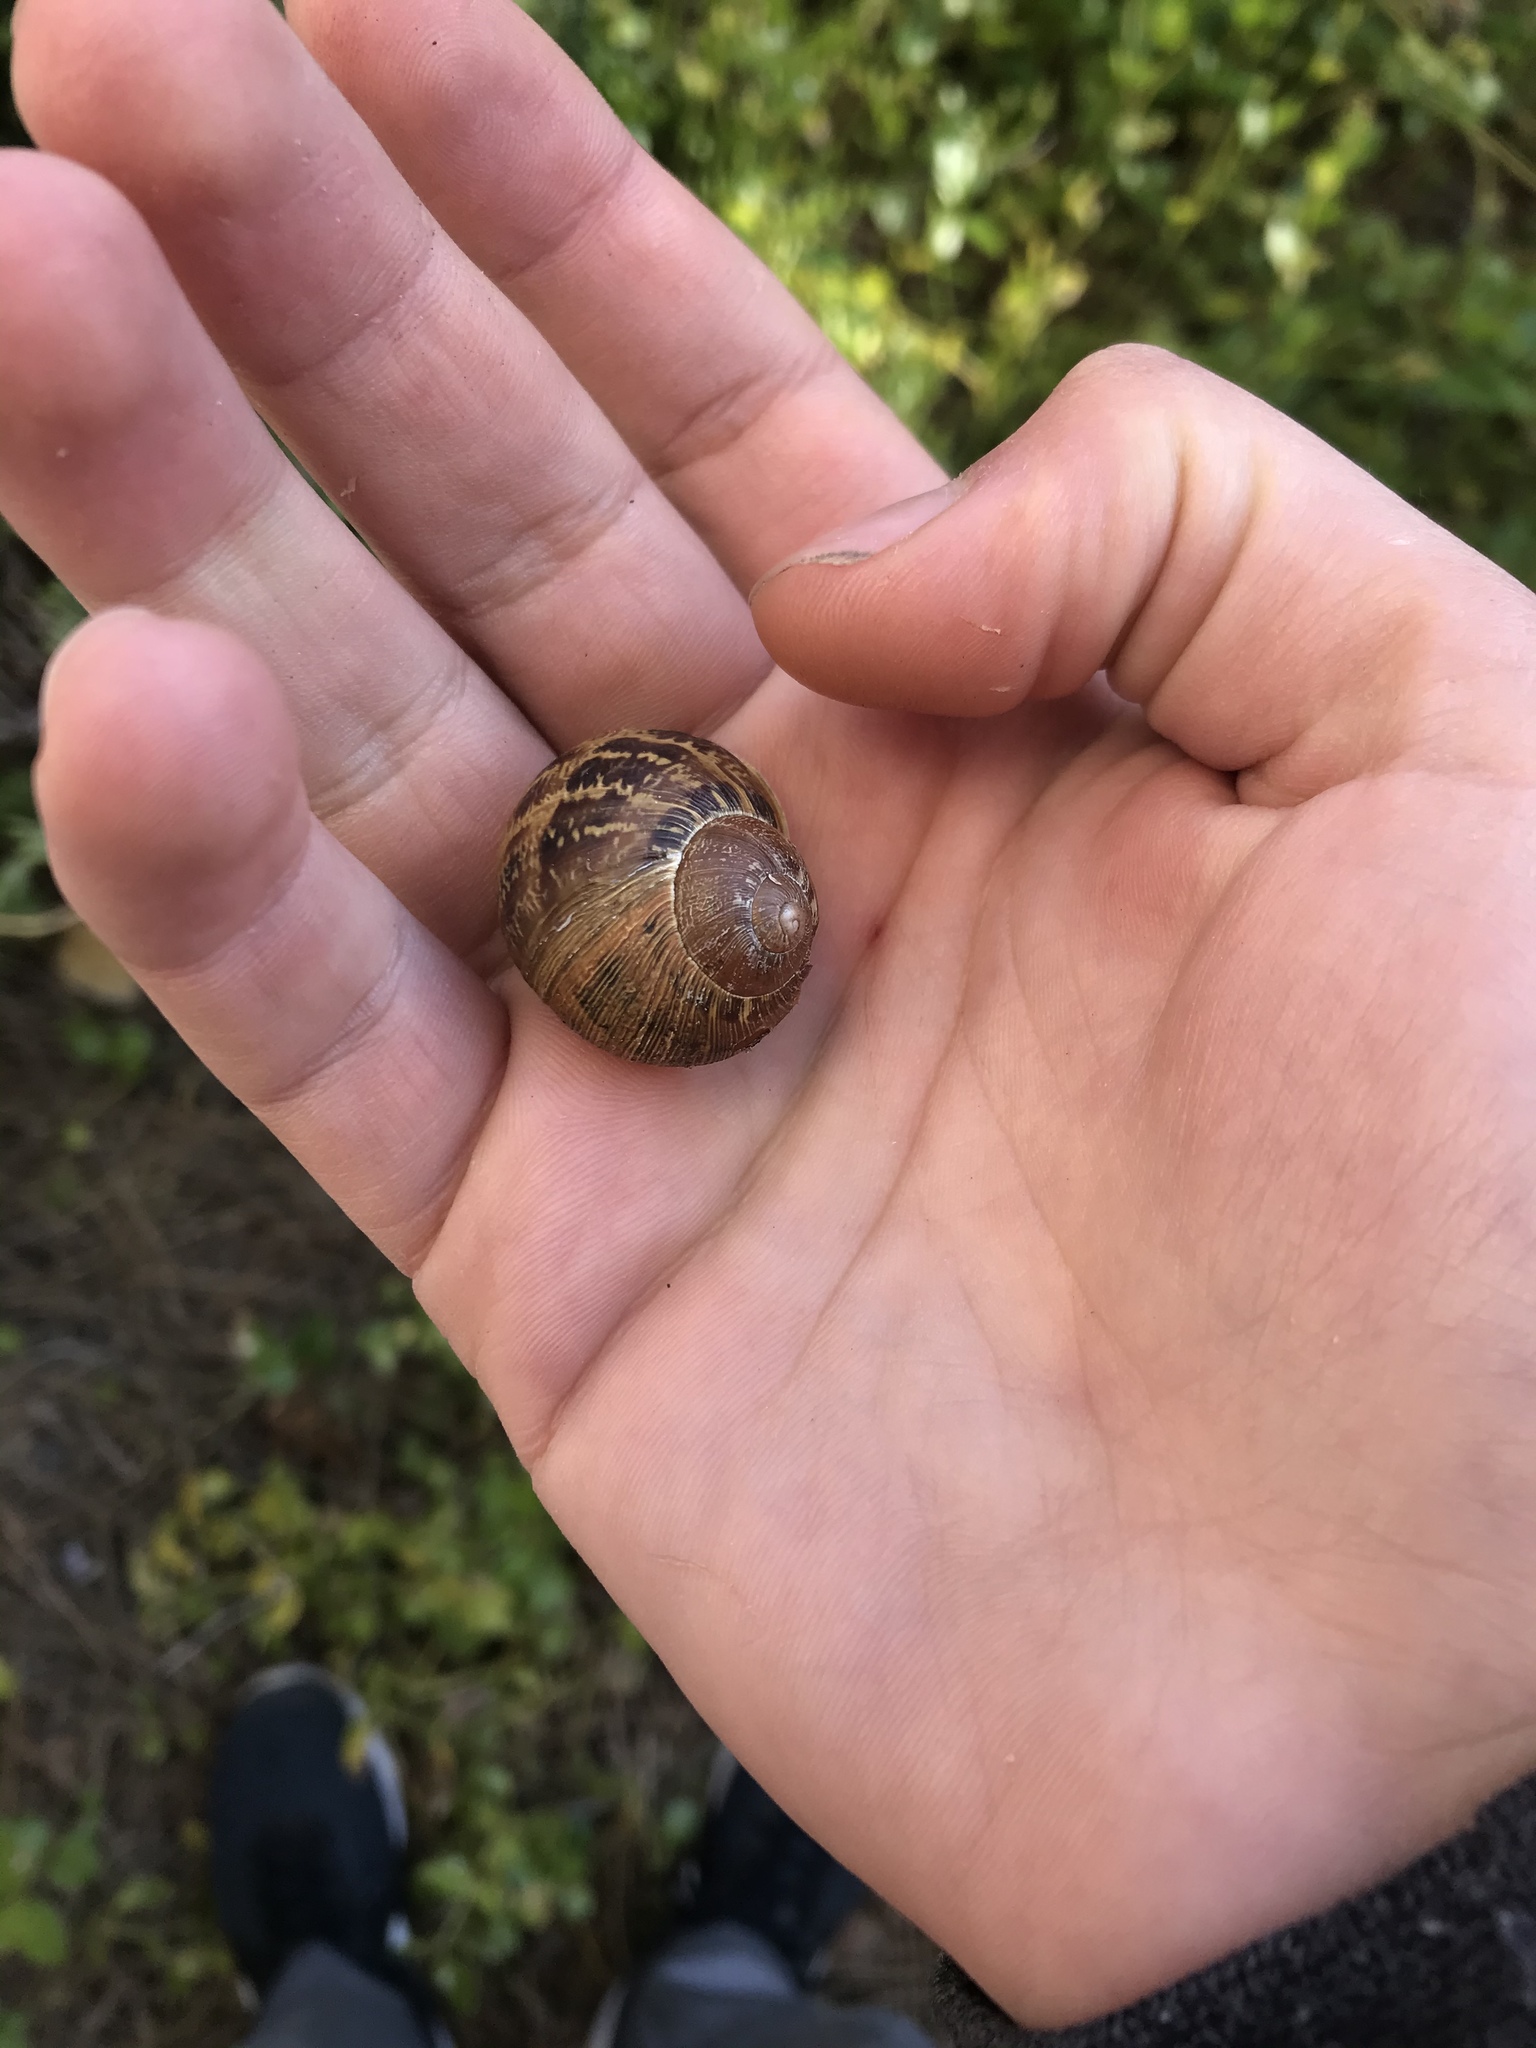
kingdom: Animalia
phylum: Mollusca
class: Gastropoda
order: Stylommatophora
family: Helicidae
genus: Cornu
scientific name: Cornu aspersum
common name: Brown garden snail
